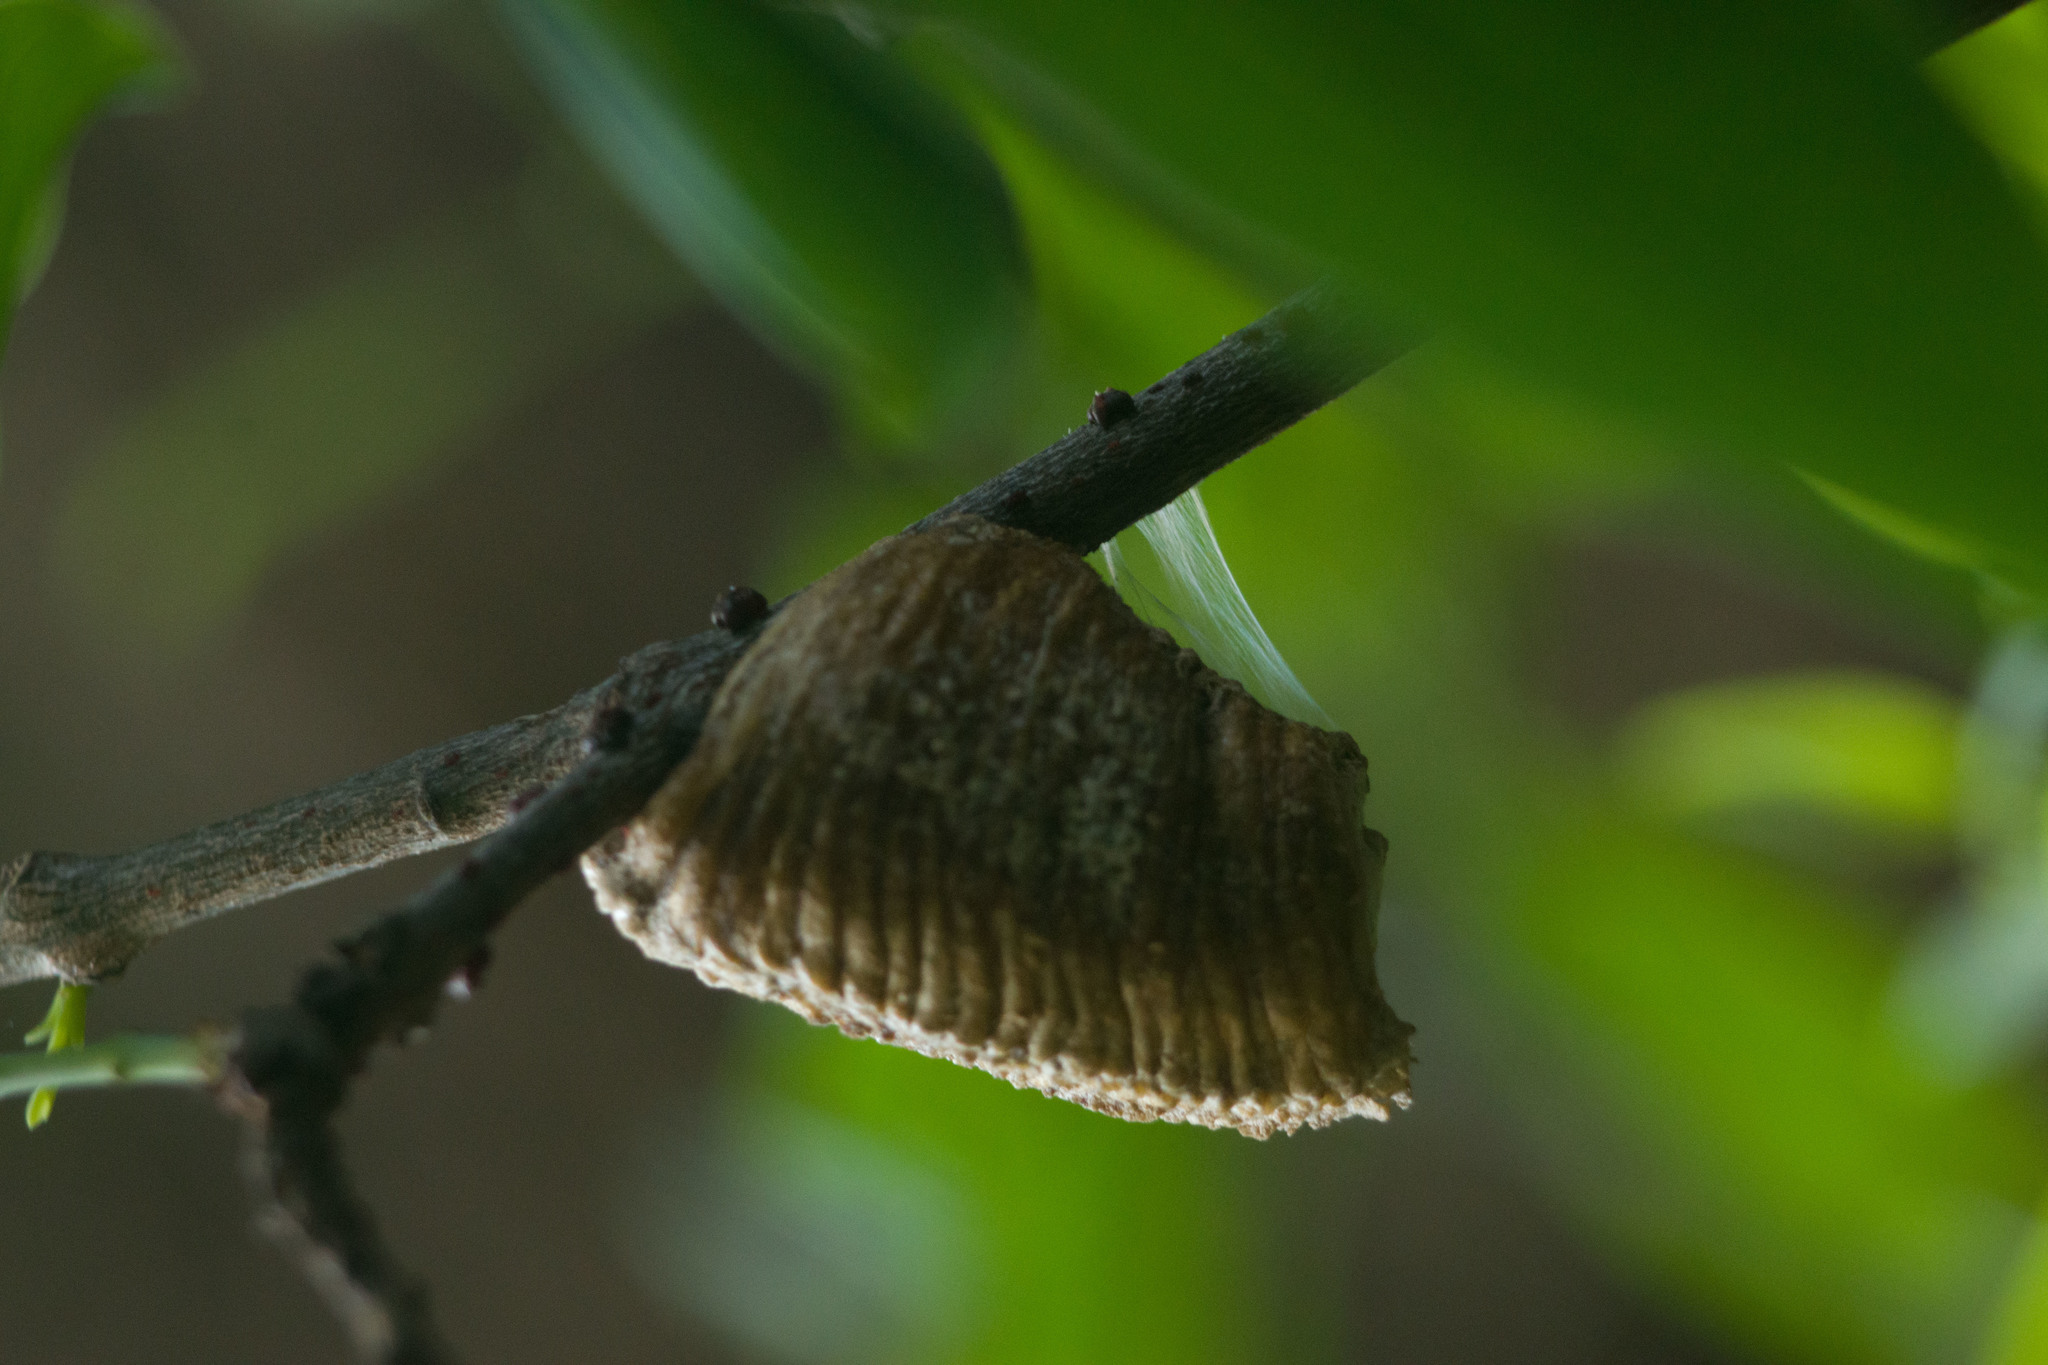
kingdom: Animalia
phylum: Arthropoda
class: Insecta
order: Mantodea
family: Mantidae
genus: Hierodula
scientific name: Hierodula patellifera
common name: Asian mantis
